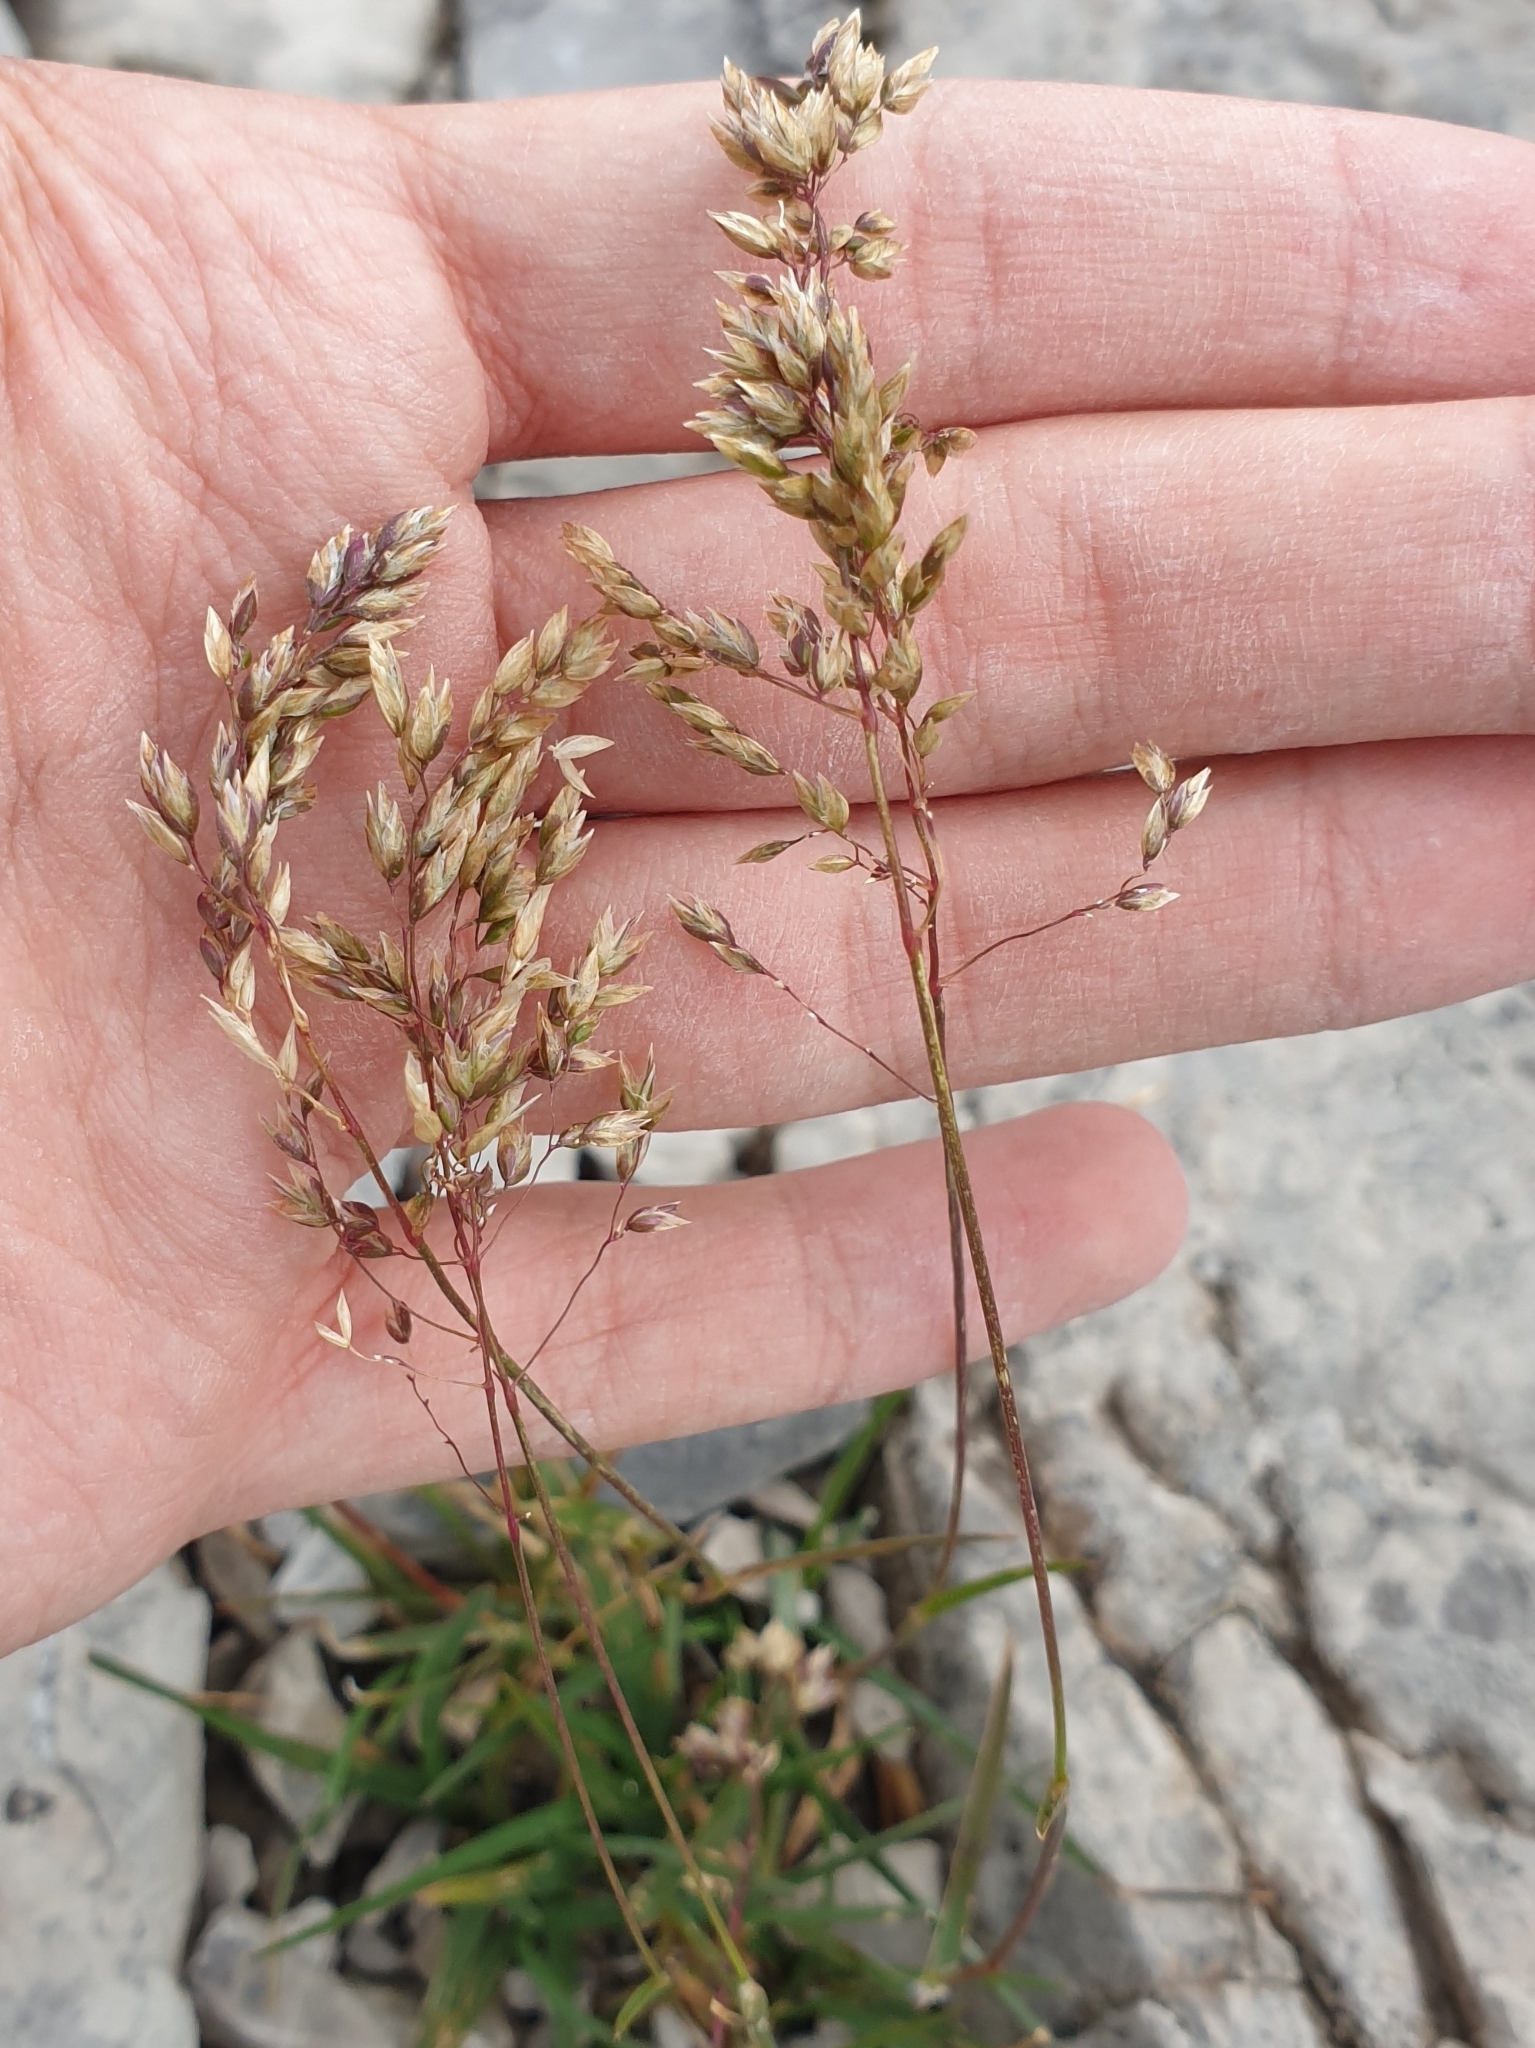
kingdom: Plantae
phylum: Tracheophyta
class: Liliopsida
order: Poales
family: Poaceae
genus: Poa
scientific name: Poa alpina
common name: Alpine bluegrass
